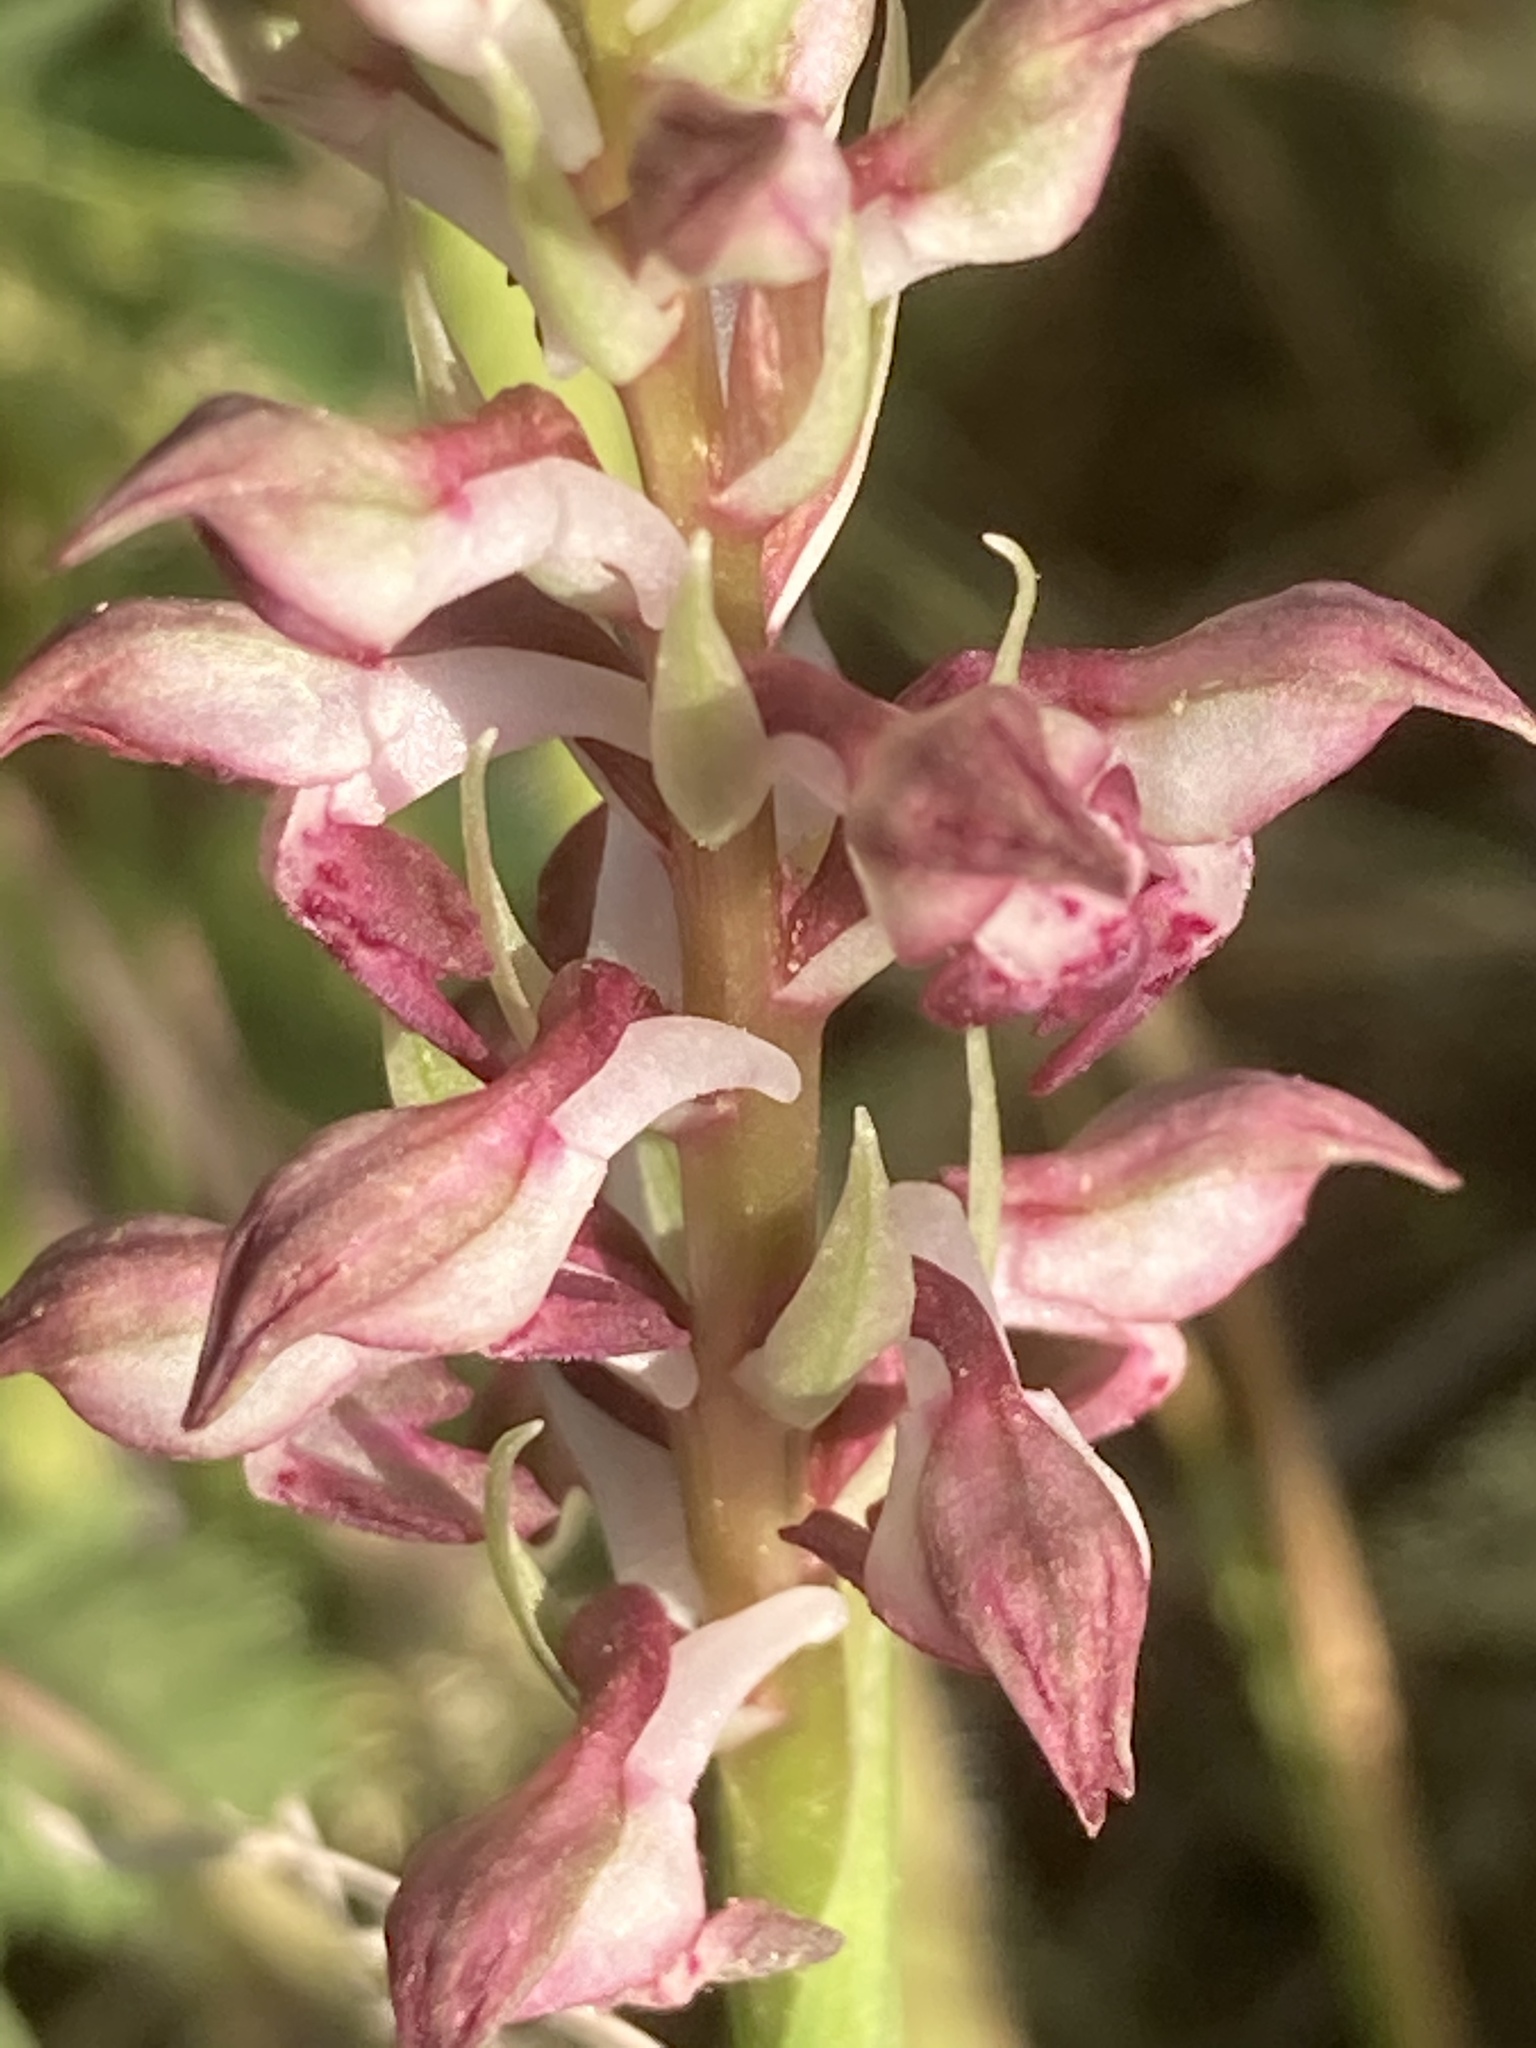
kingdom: Plantae
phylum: Tracheophyta
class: Liliopsida
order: Asparagales
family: Orchidaceae
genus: Anacamptis
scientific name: Anacamptis coriophora
